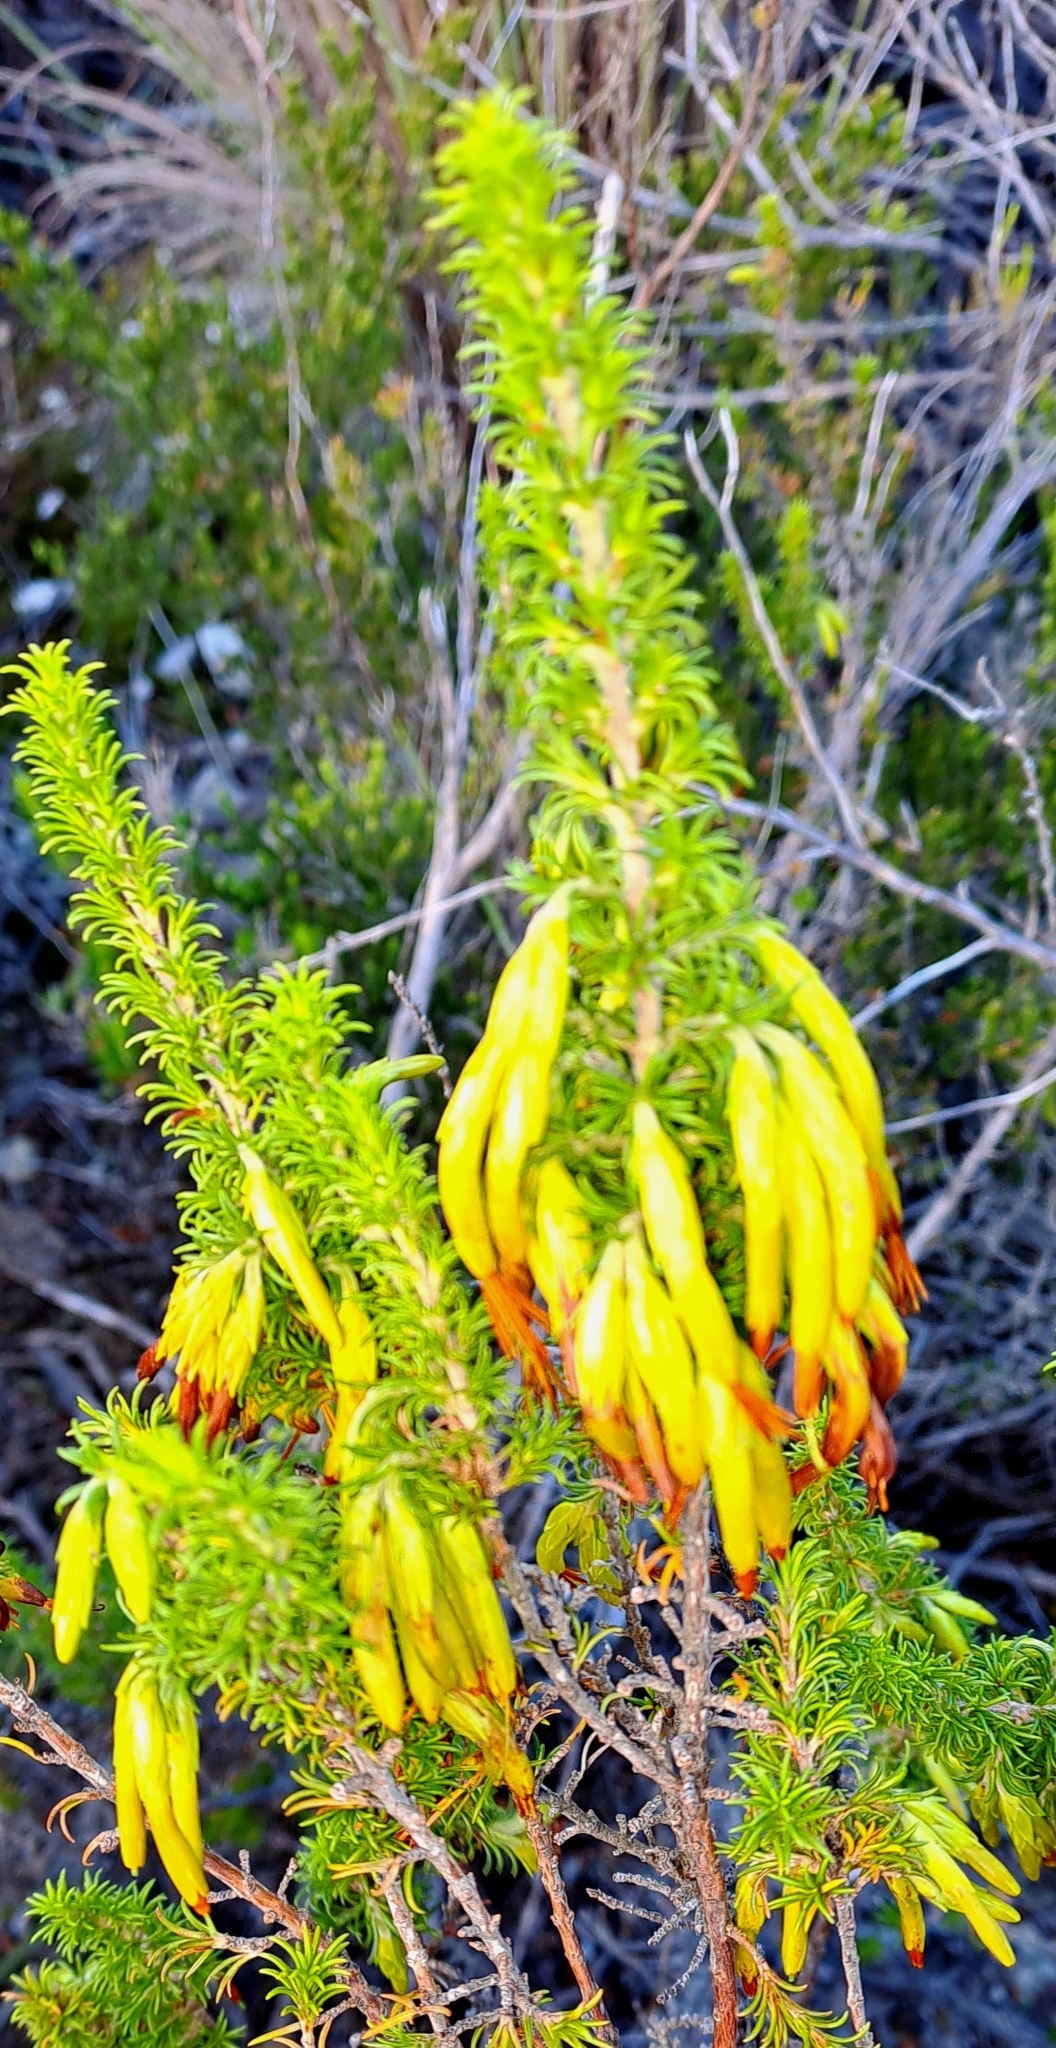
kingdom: Plantae
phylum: Tracheophyta
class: Magnoliopsida
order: Ericales
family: Ericaceae
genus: Erica
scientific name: Erica coccinea
